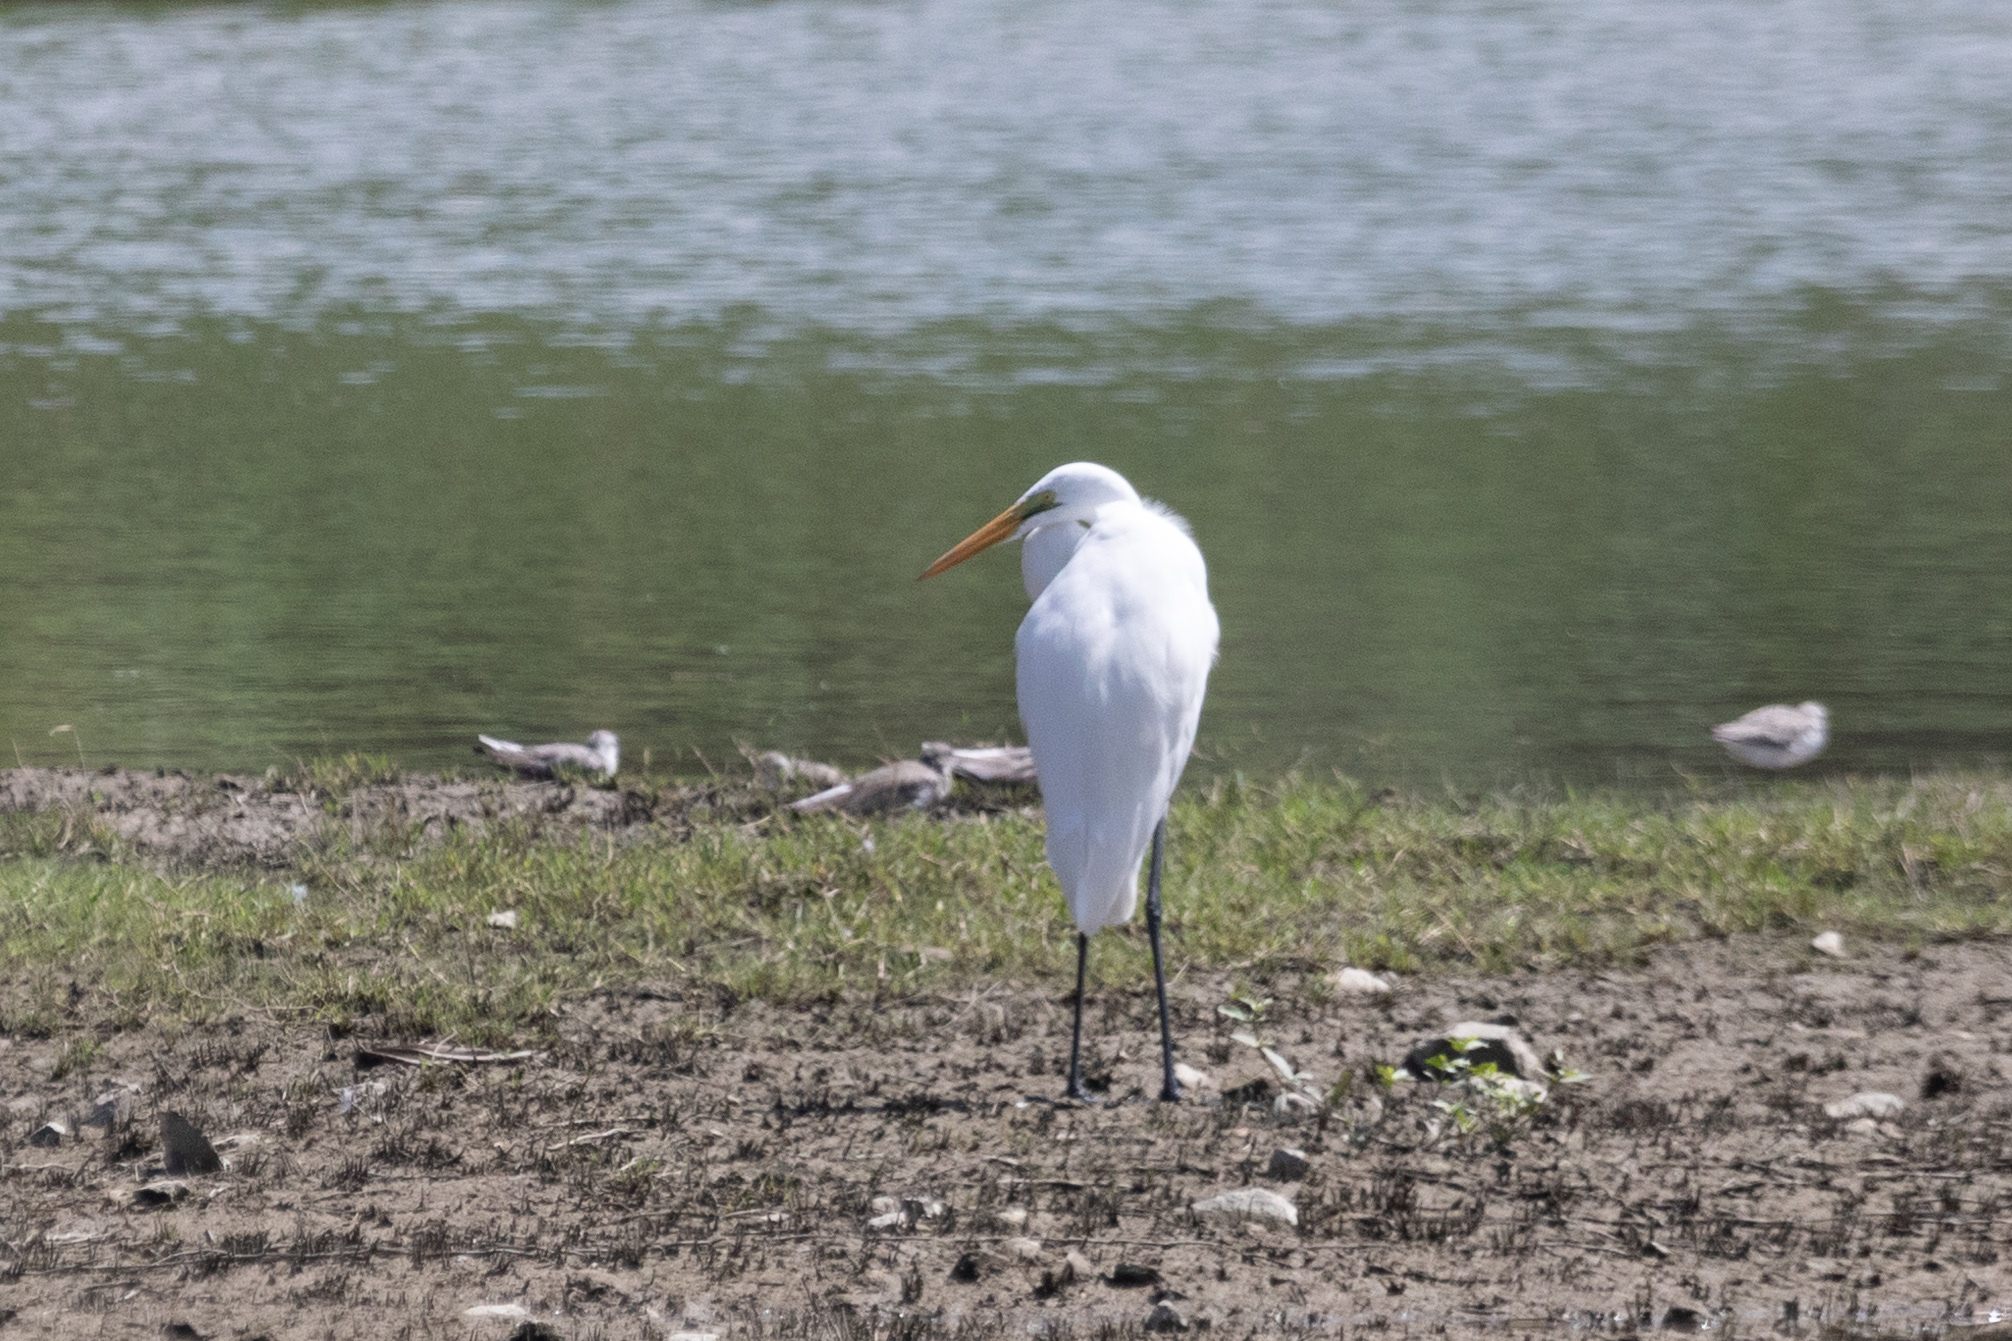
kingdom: Animalia
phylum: Chordata
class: Aves
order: Pelecaniformes
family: Ardeidae
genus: Ardea
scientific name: Ardea alba
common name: Great egret
